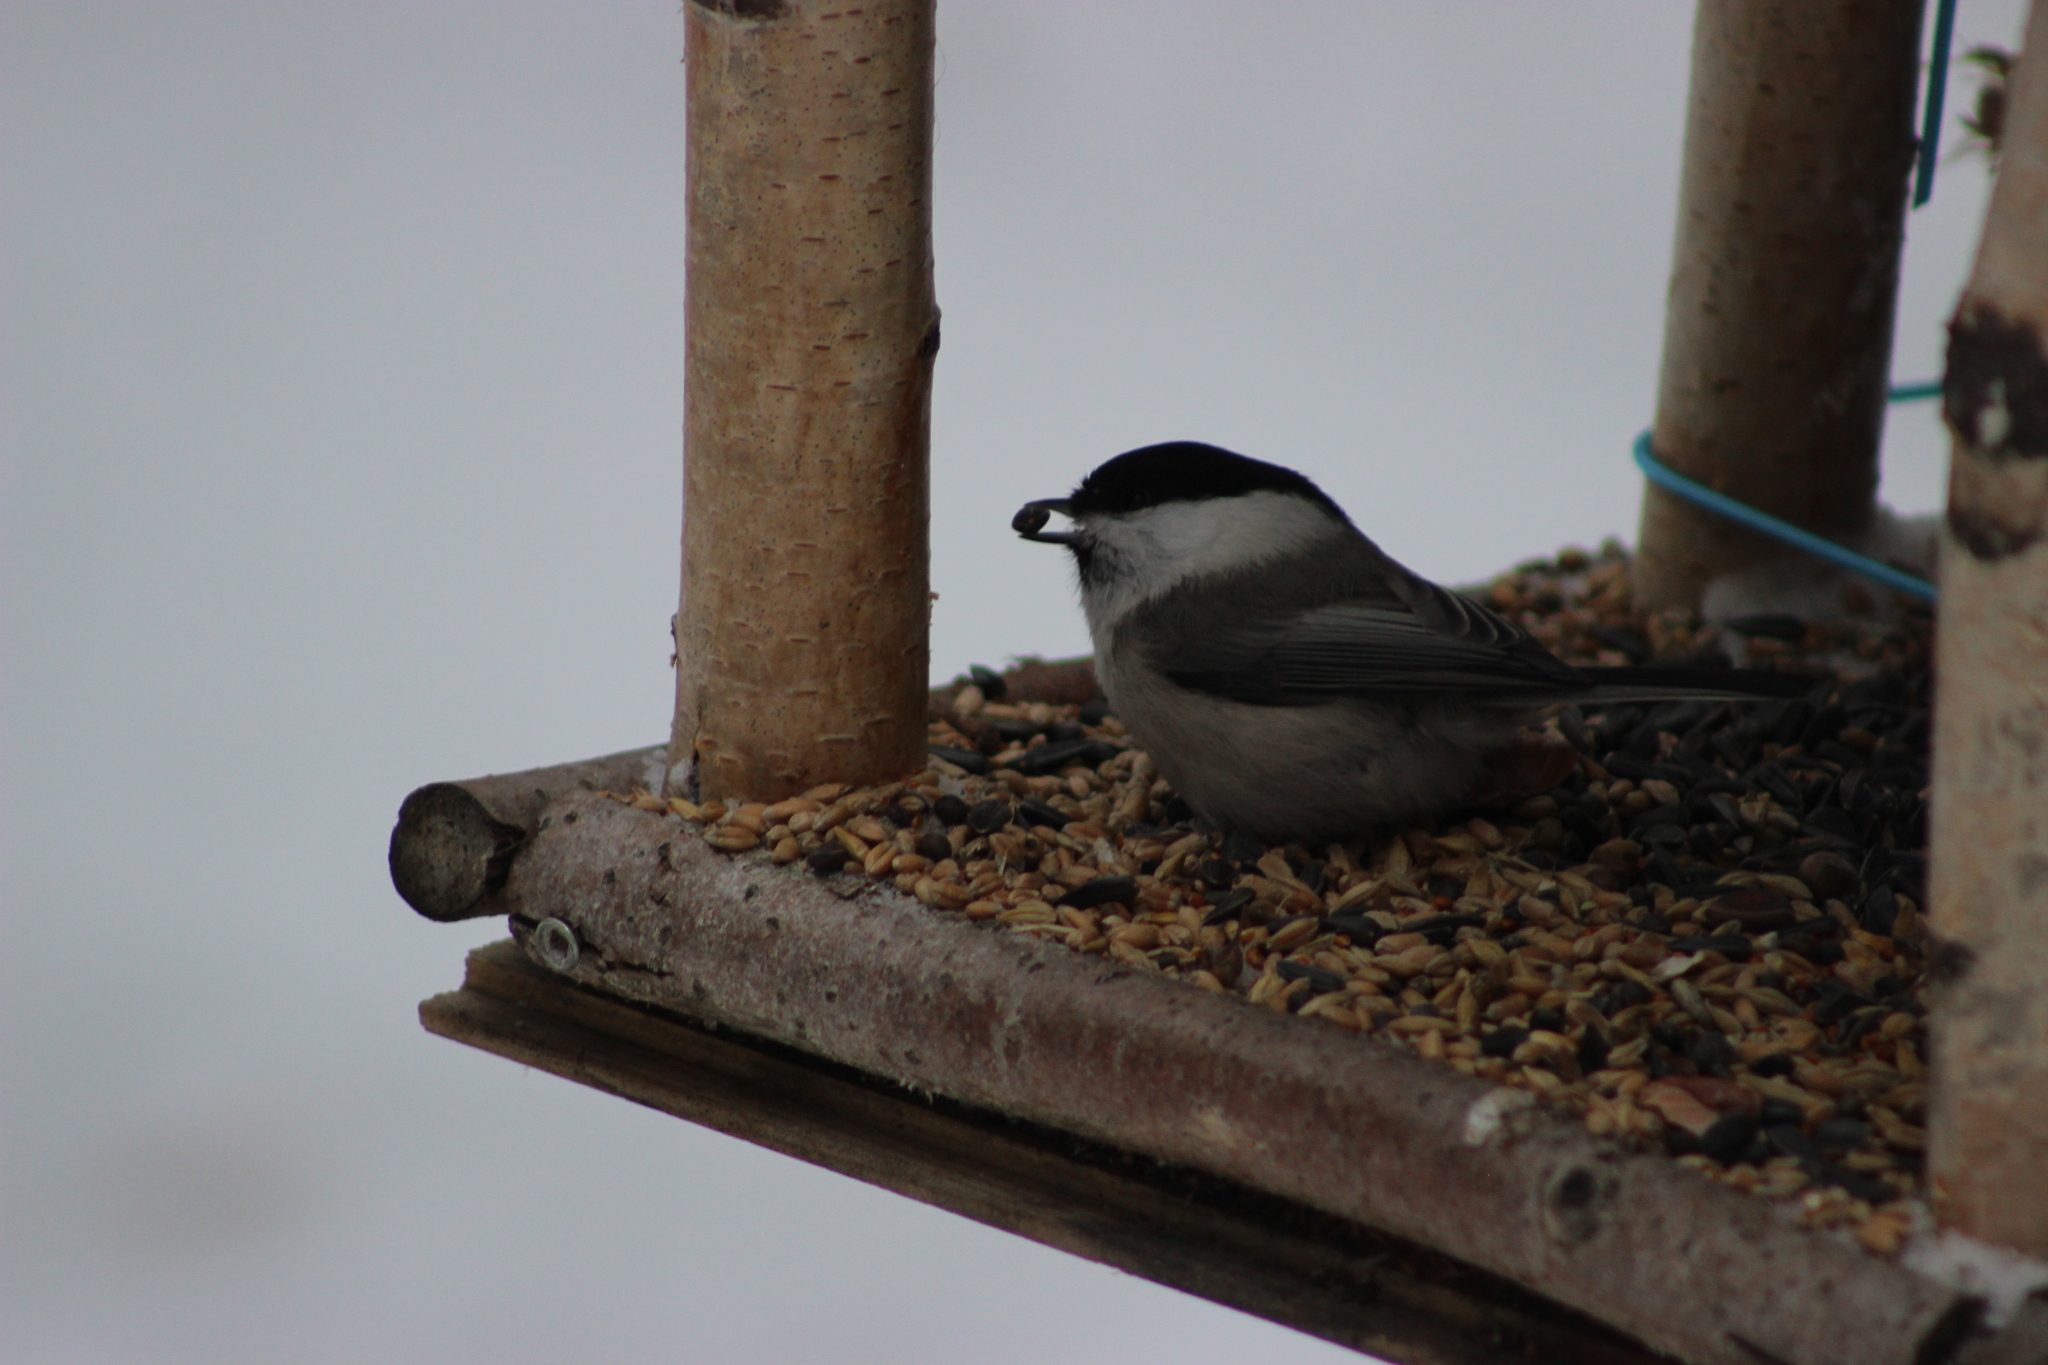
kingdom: Animalia
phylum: Chordata
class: Aves
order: Passeriformes
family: Paridae
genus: Poecile
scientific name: Poecile montanus
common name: Willow tit
